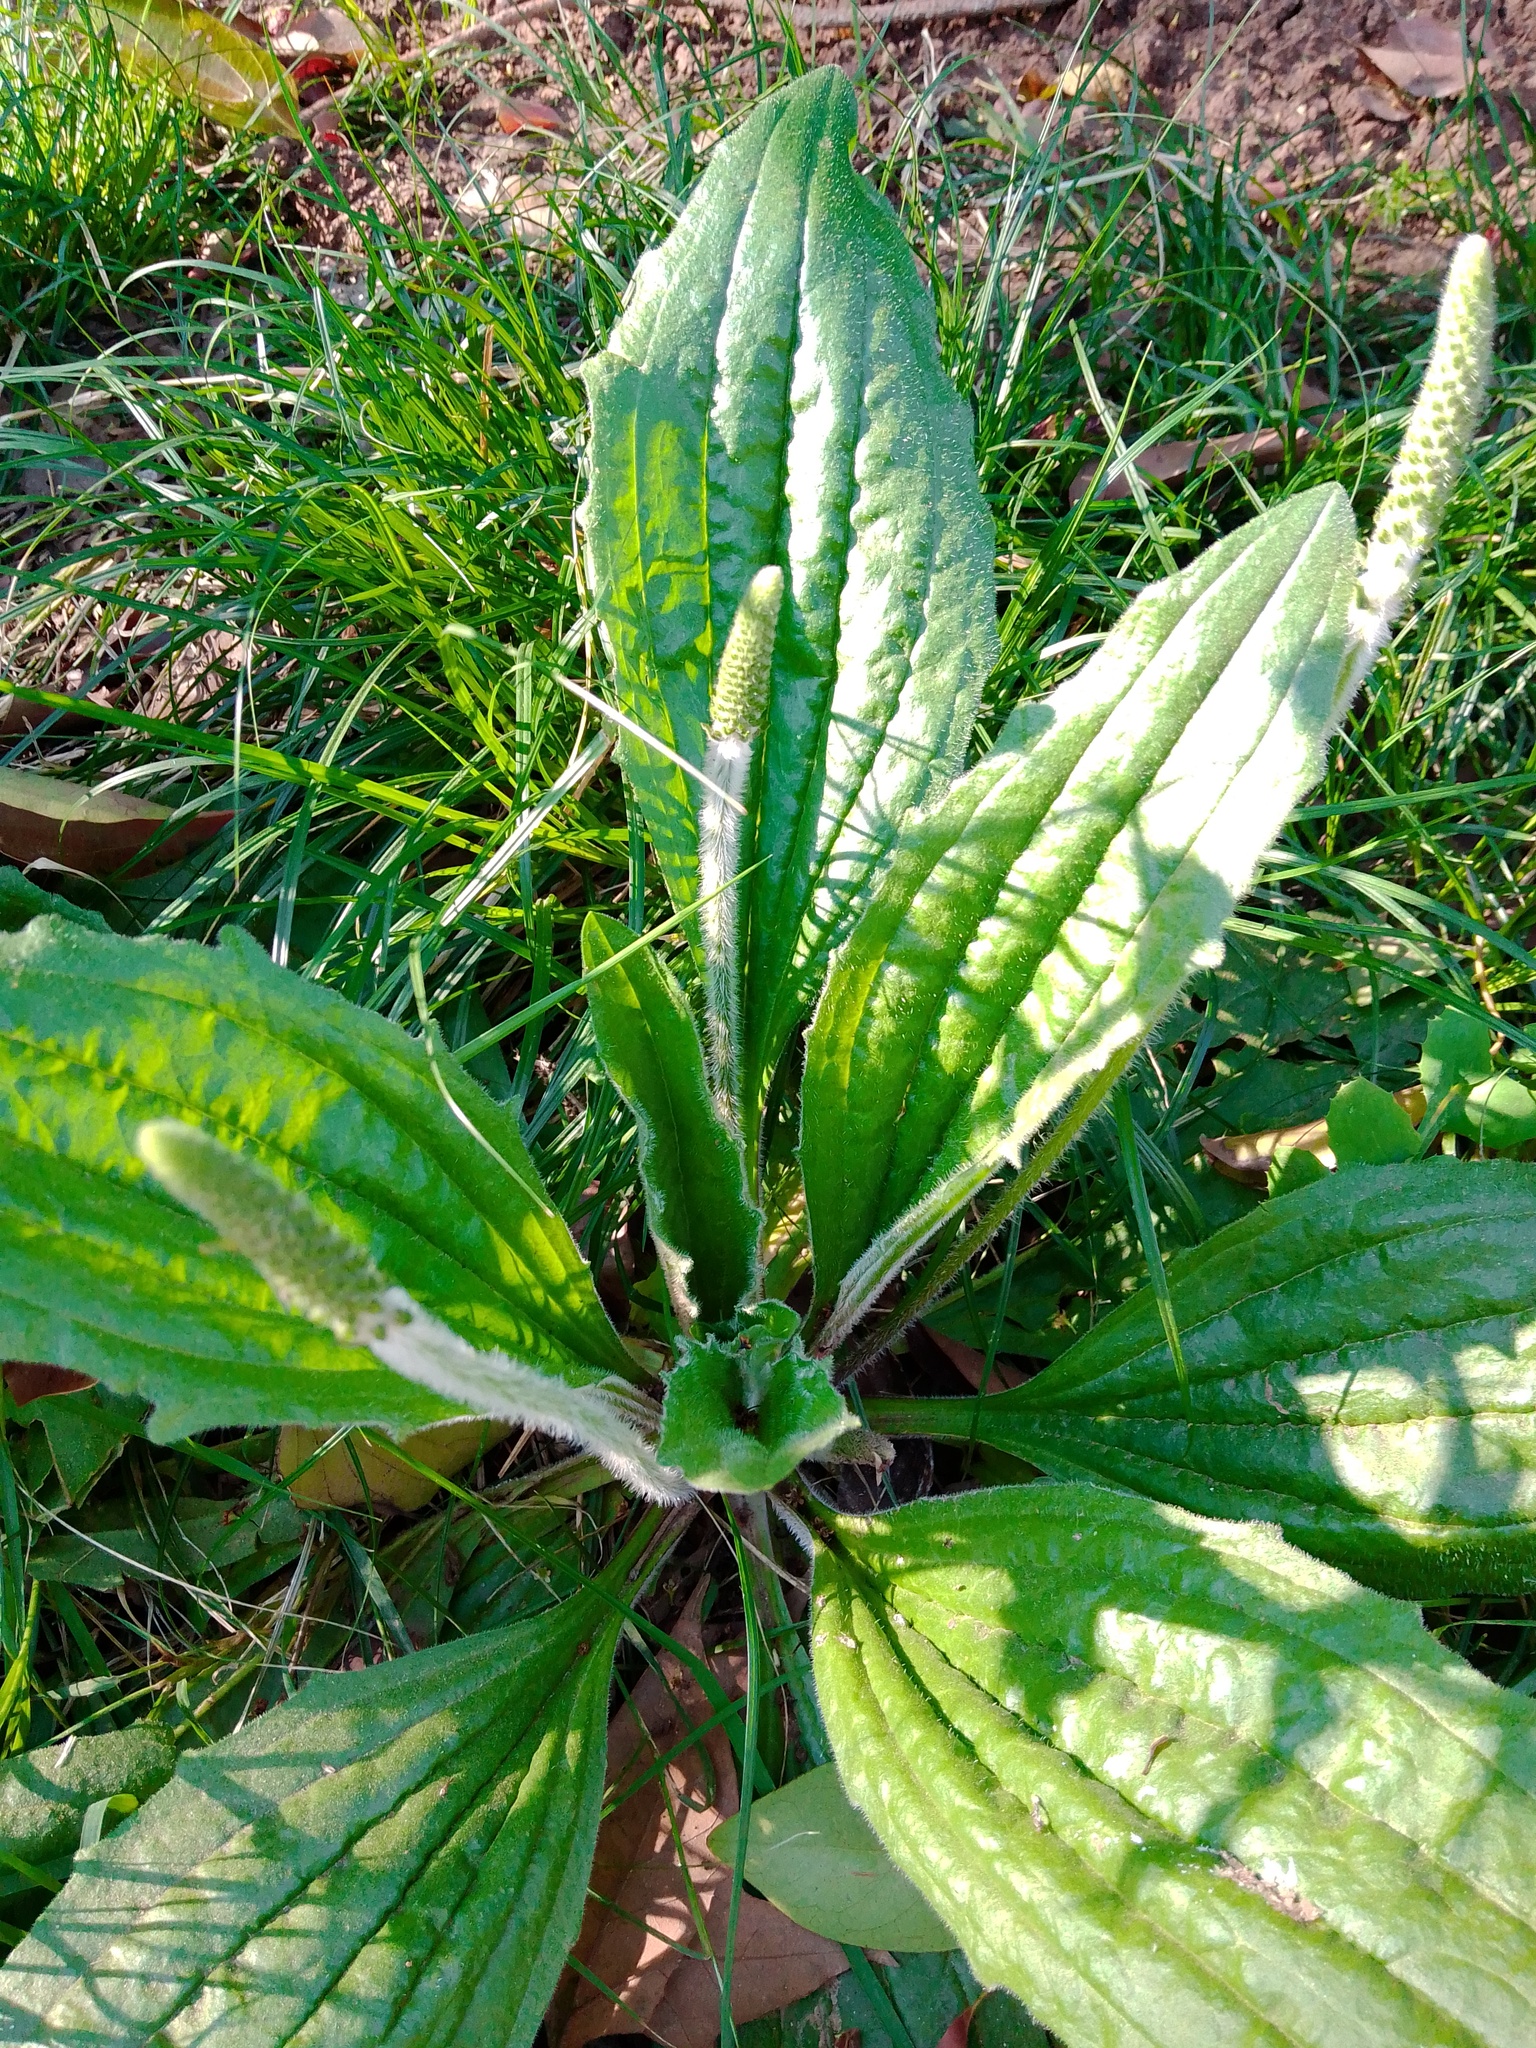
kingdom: Plantae
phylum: Tracheophyta
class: Magnoliopsida
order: Lamiales
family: Plantaginaceae
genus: Plantago
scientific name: Plantago australis
